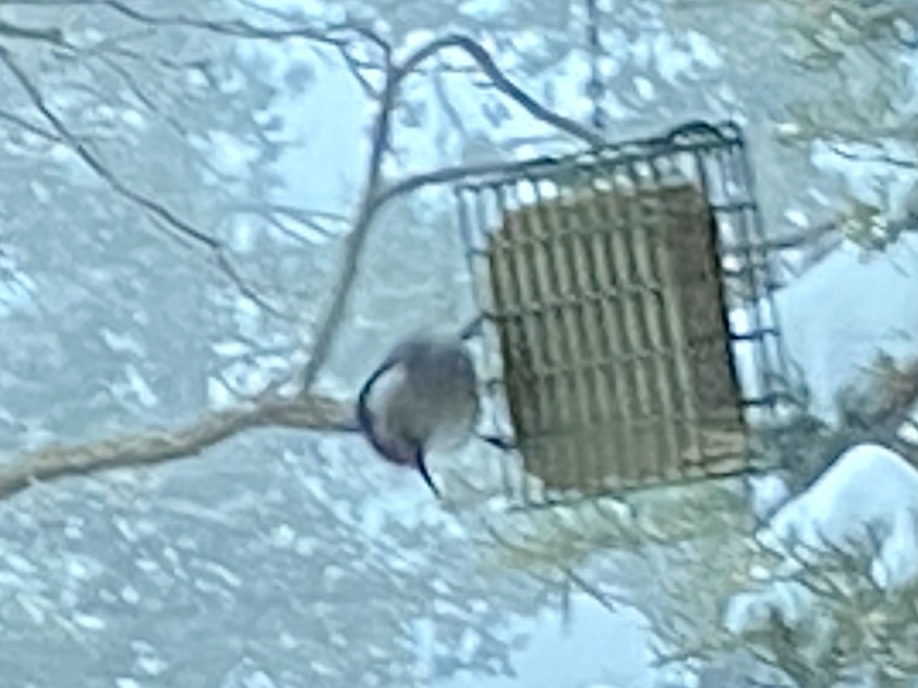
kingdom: Animalia
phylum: Chordata
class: Aves
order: Passeriformes
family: Sittidae
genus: Sitta
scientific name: Sitta carolinensis
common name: White-breasted nuthatch
